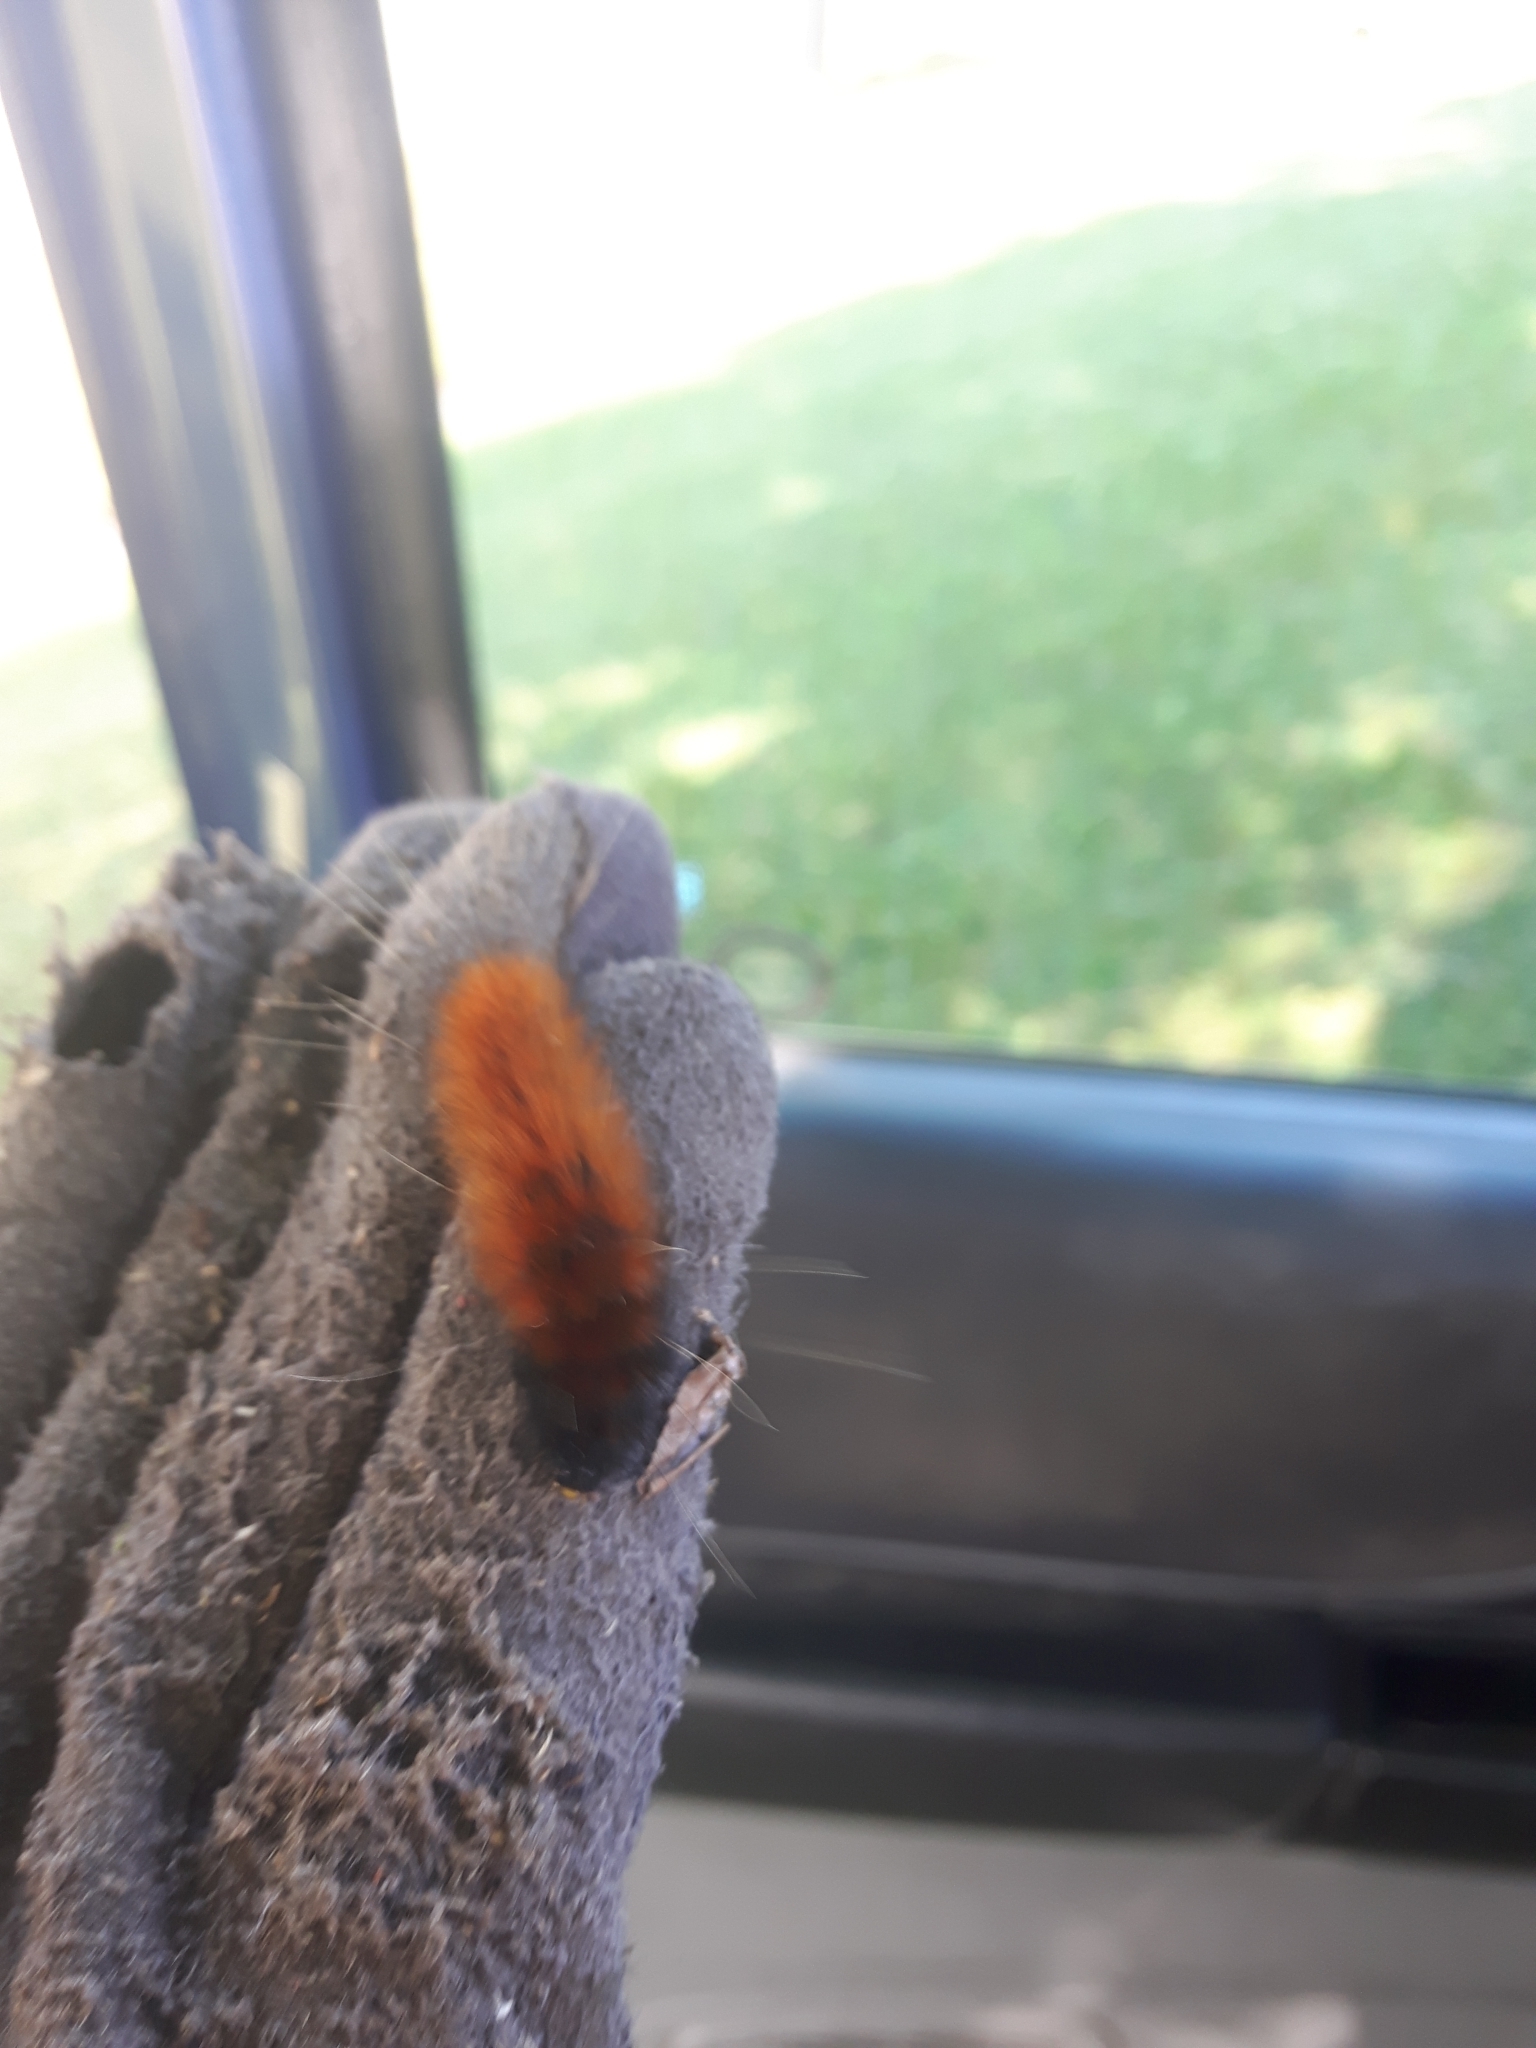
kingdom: Animalia
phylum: Arthropoda
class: Insecta
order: Lepidoptera
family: Erebidae
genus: Spilosoma
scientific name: Spilosoma virginica
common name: Virginia tiger moth
